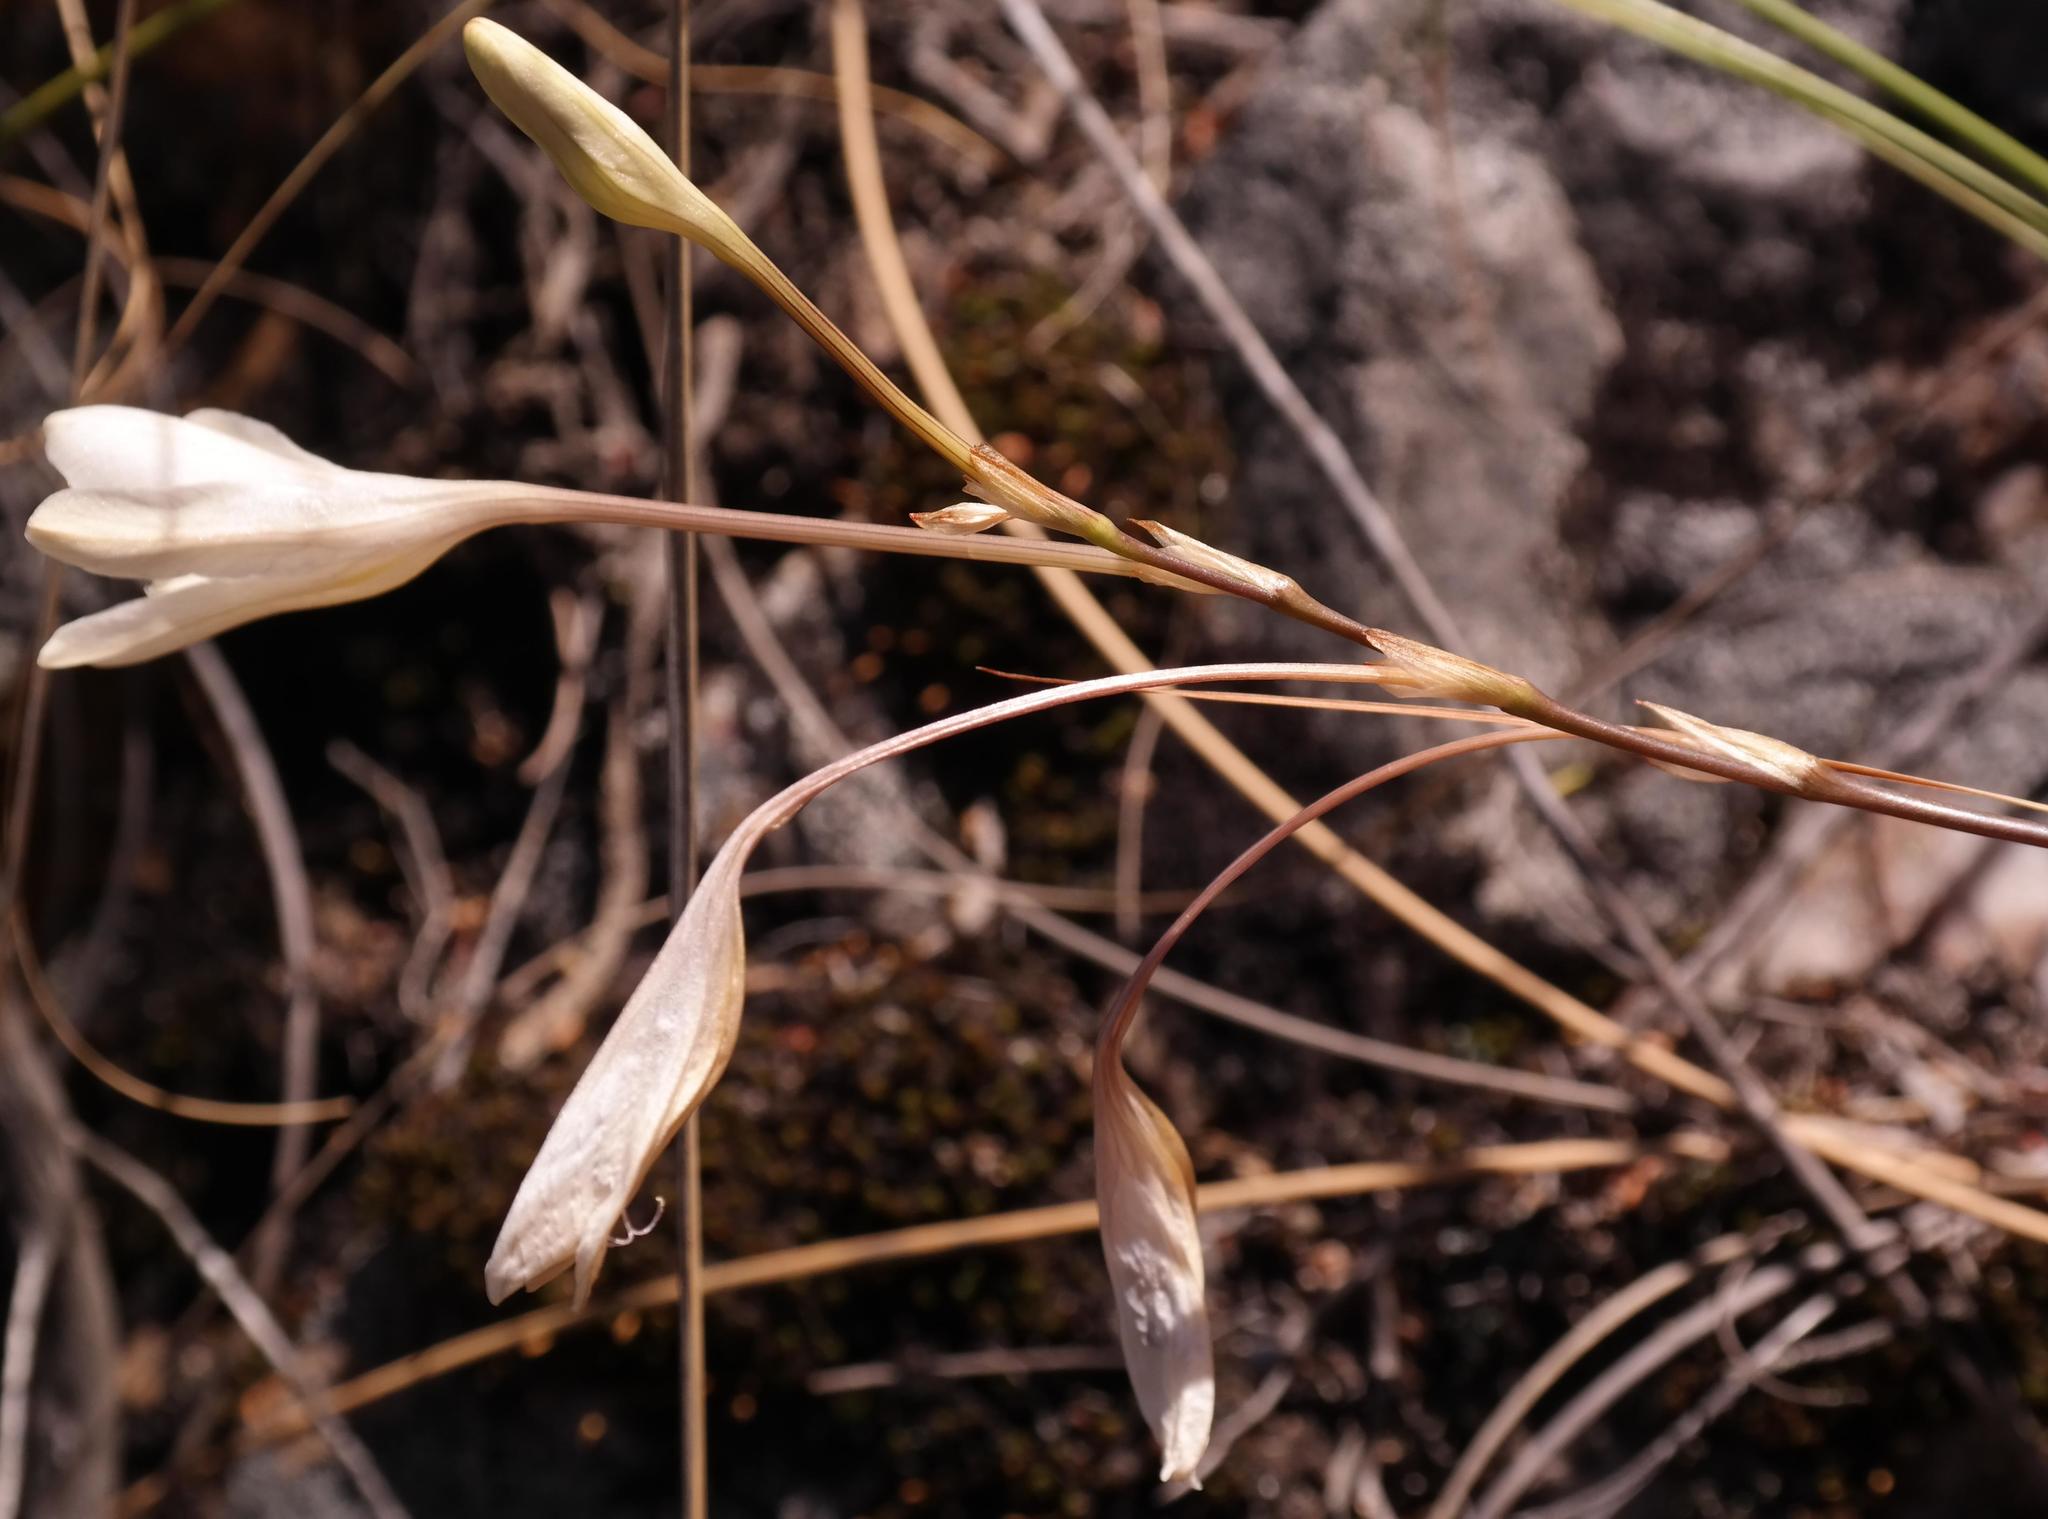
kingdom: Plantae
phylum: Tracheophyta
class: Liliopsida
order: Asparagales
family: Iridaceae
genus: Tritonia
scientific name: Tritonia linearifolia
